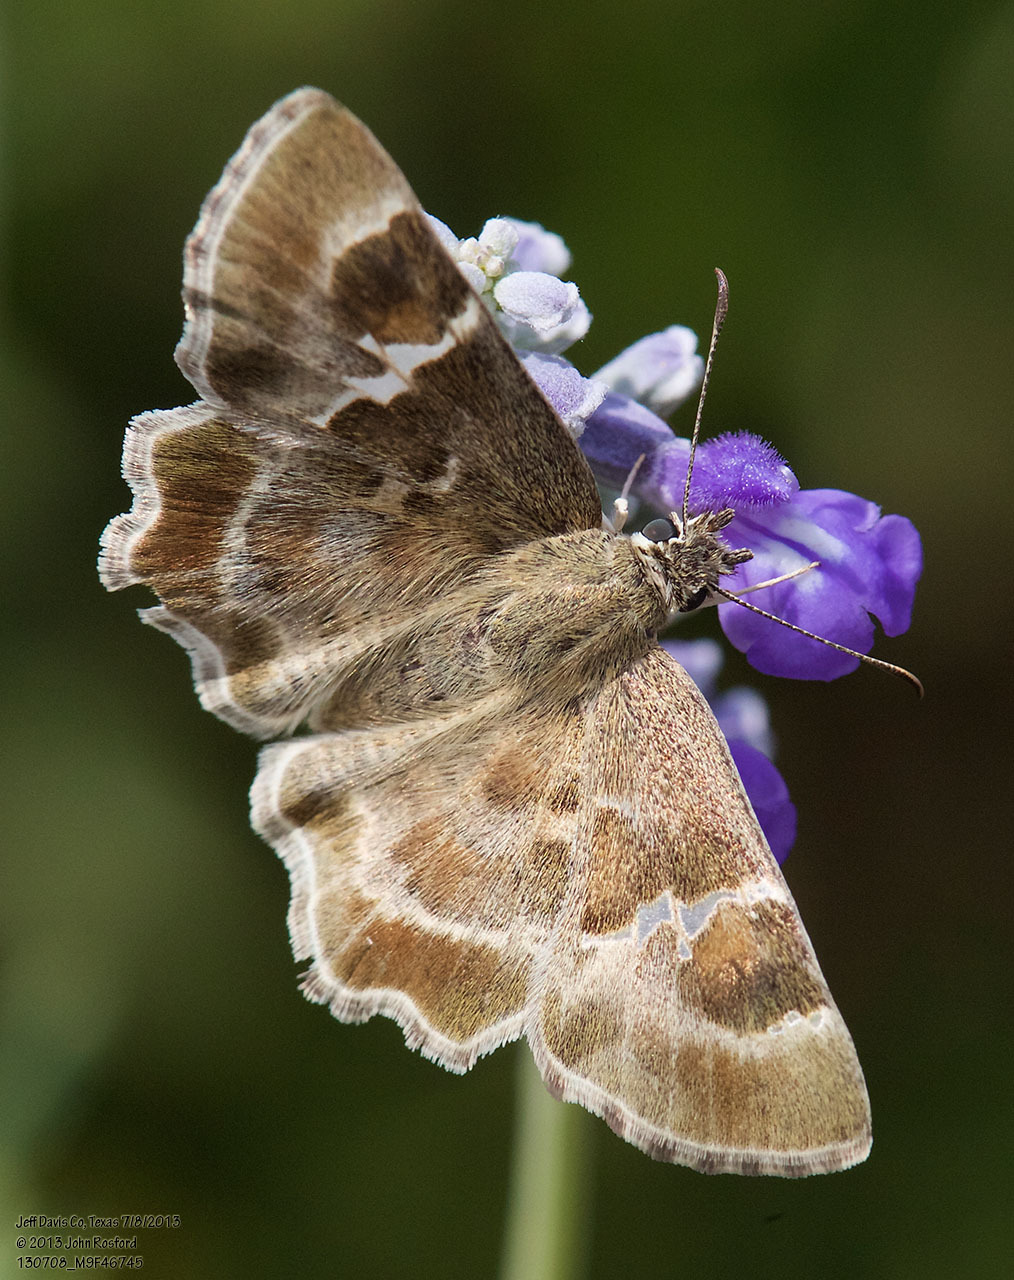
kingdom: Animalia
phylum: Arthropoda
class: Insecta
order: Lepidoptera
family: Hesperiidae
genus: Systasea
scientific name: Systasea zampa
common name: Arizona powdered-skipper
